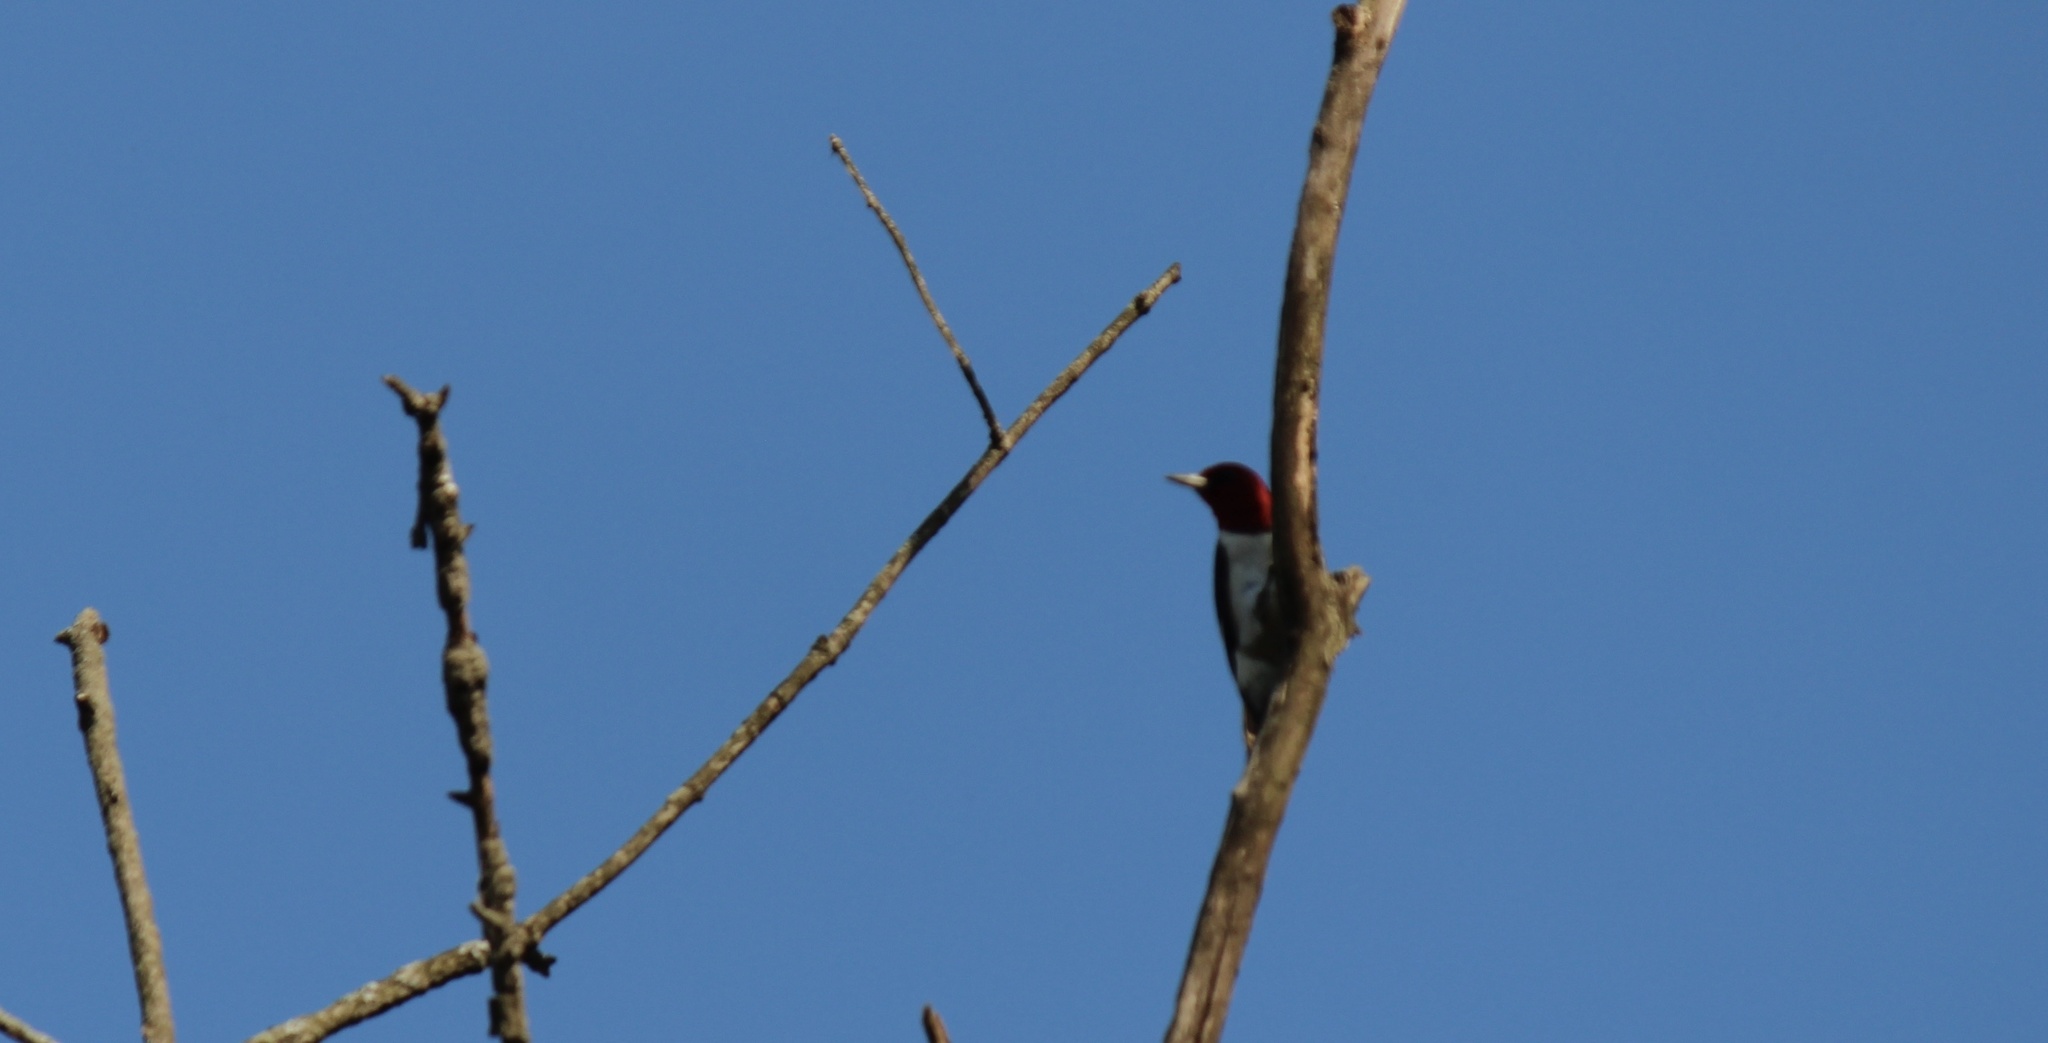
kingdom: Animalia
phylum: Chordata
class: Aves
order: Piciformes
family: Picidae
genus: Melanerpes
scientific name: Melanerpes erythrocephalus
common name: Red-headed woodpecker
